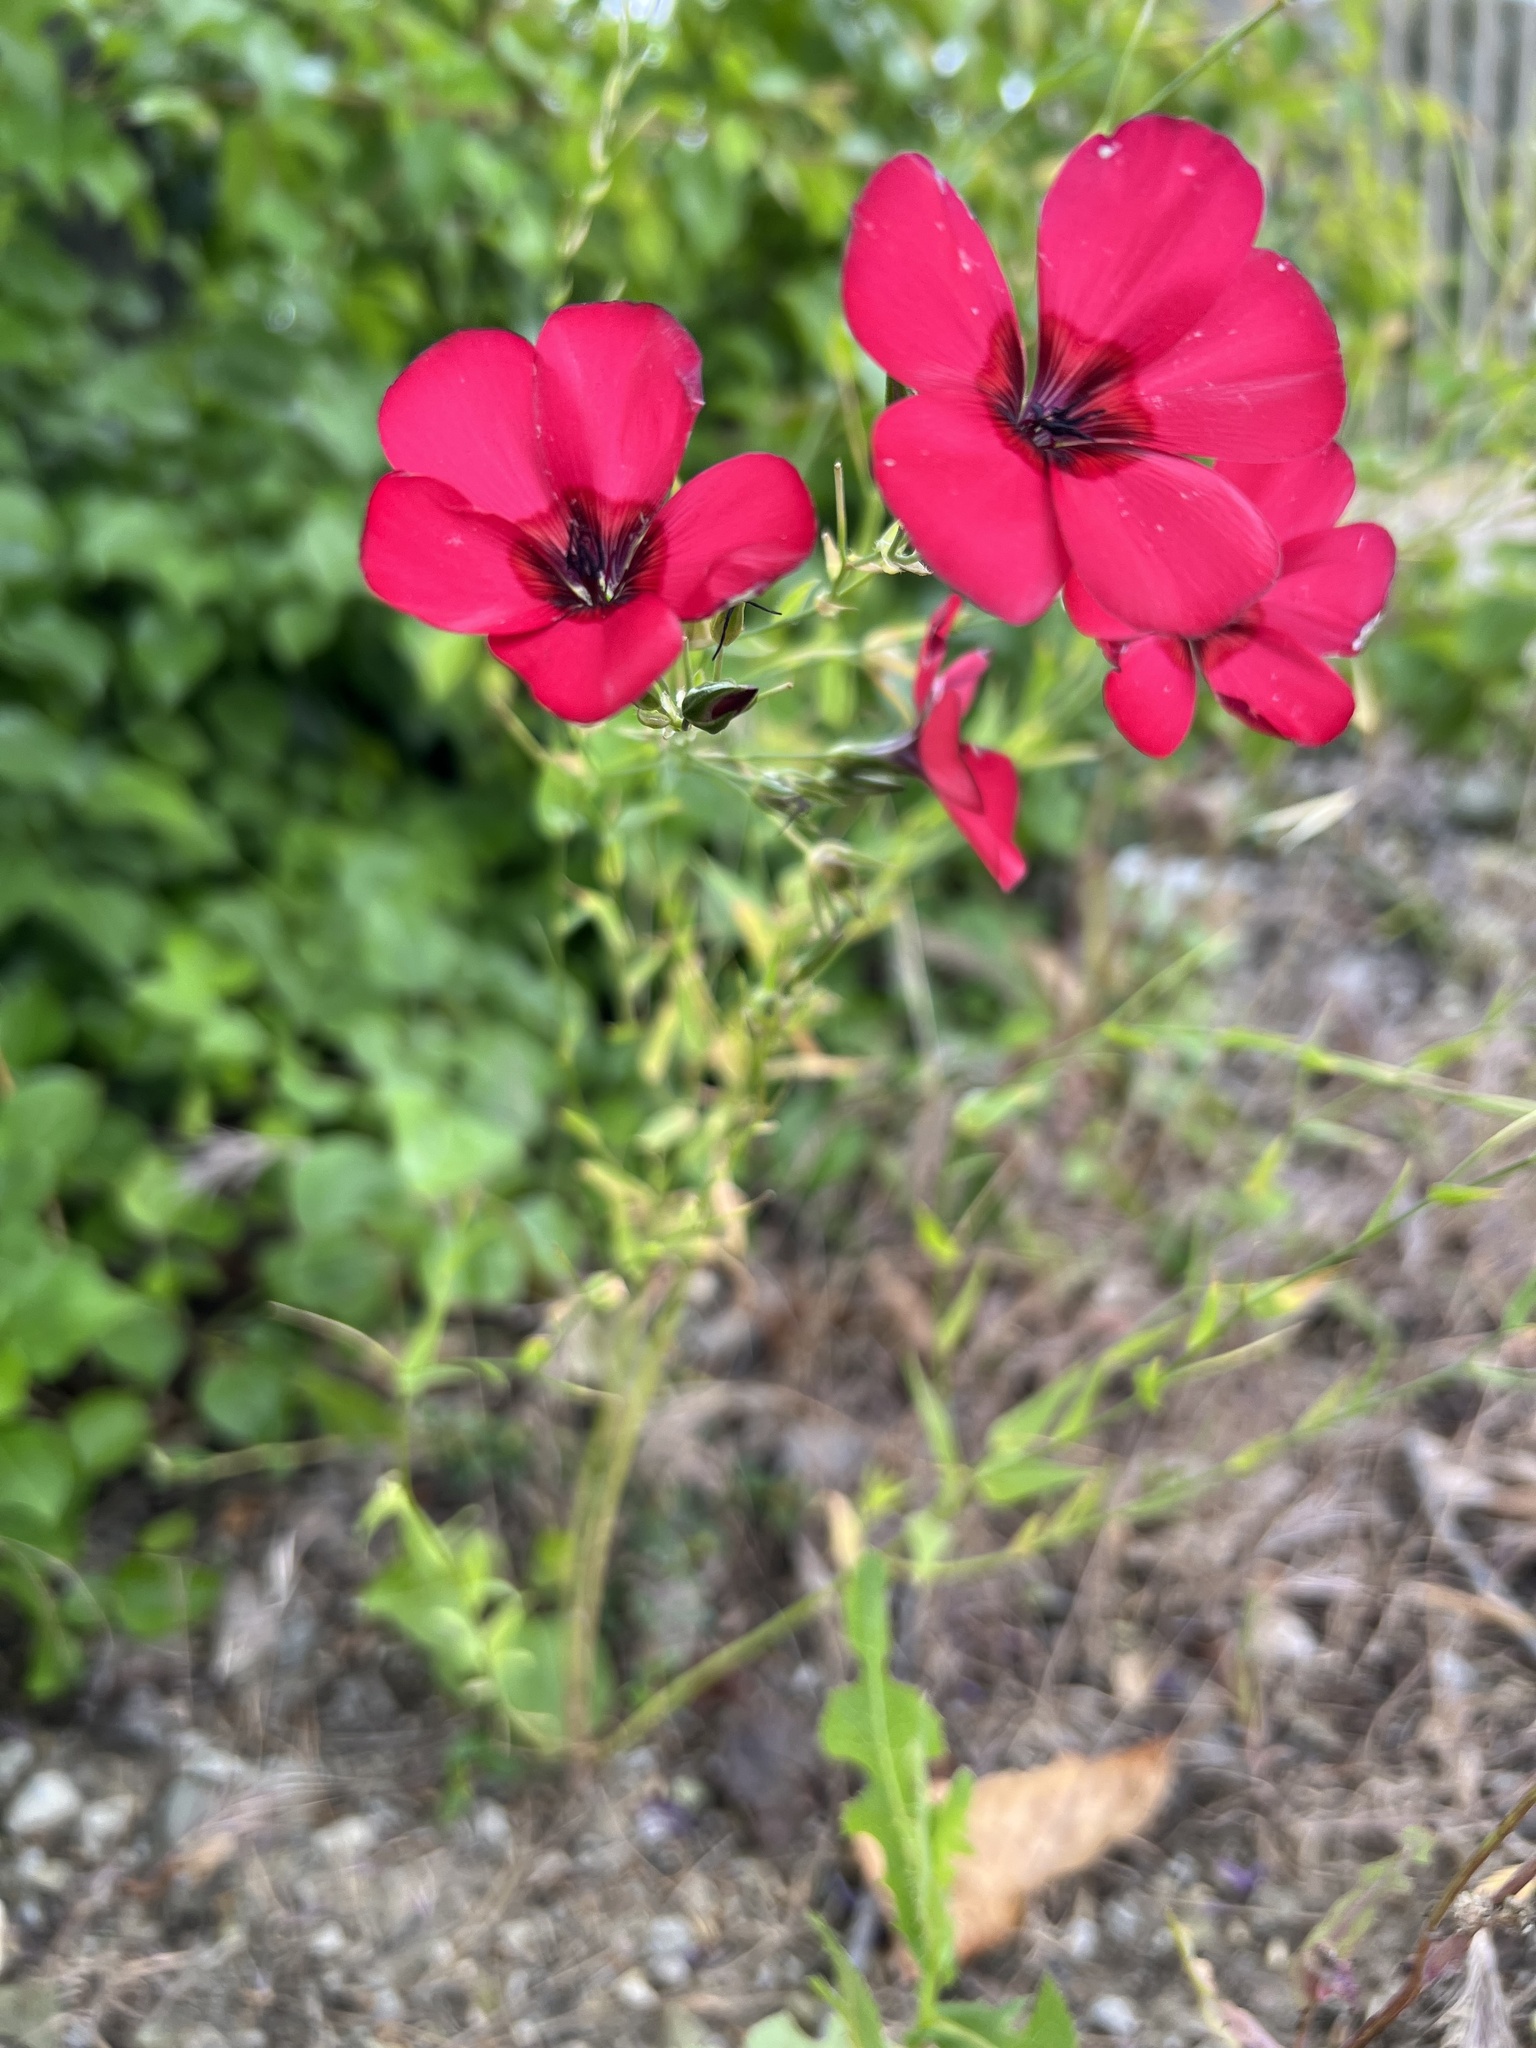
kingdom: Plantae
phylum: Tracheophyta
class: Magnoliopsida
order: Malpighiales
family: Linaceae
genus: Linum
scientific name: Linum grandiflorum
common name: Crimson flax
